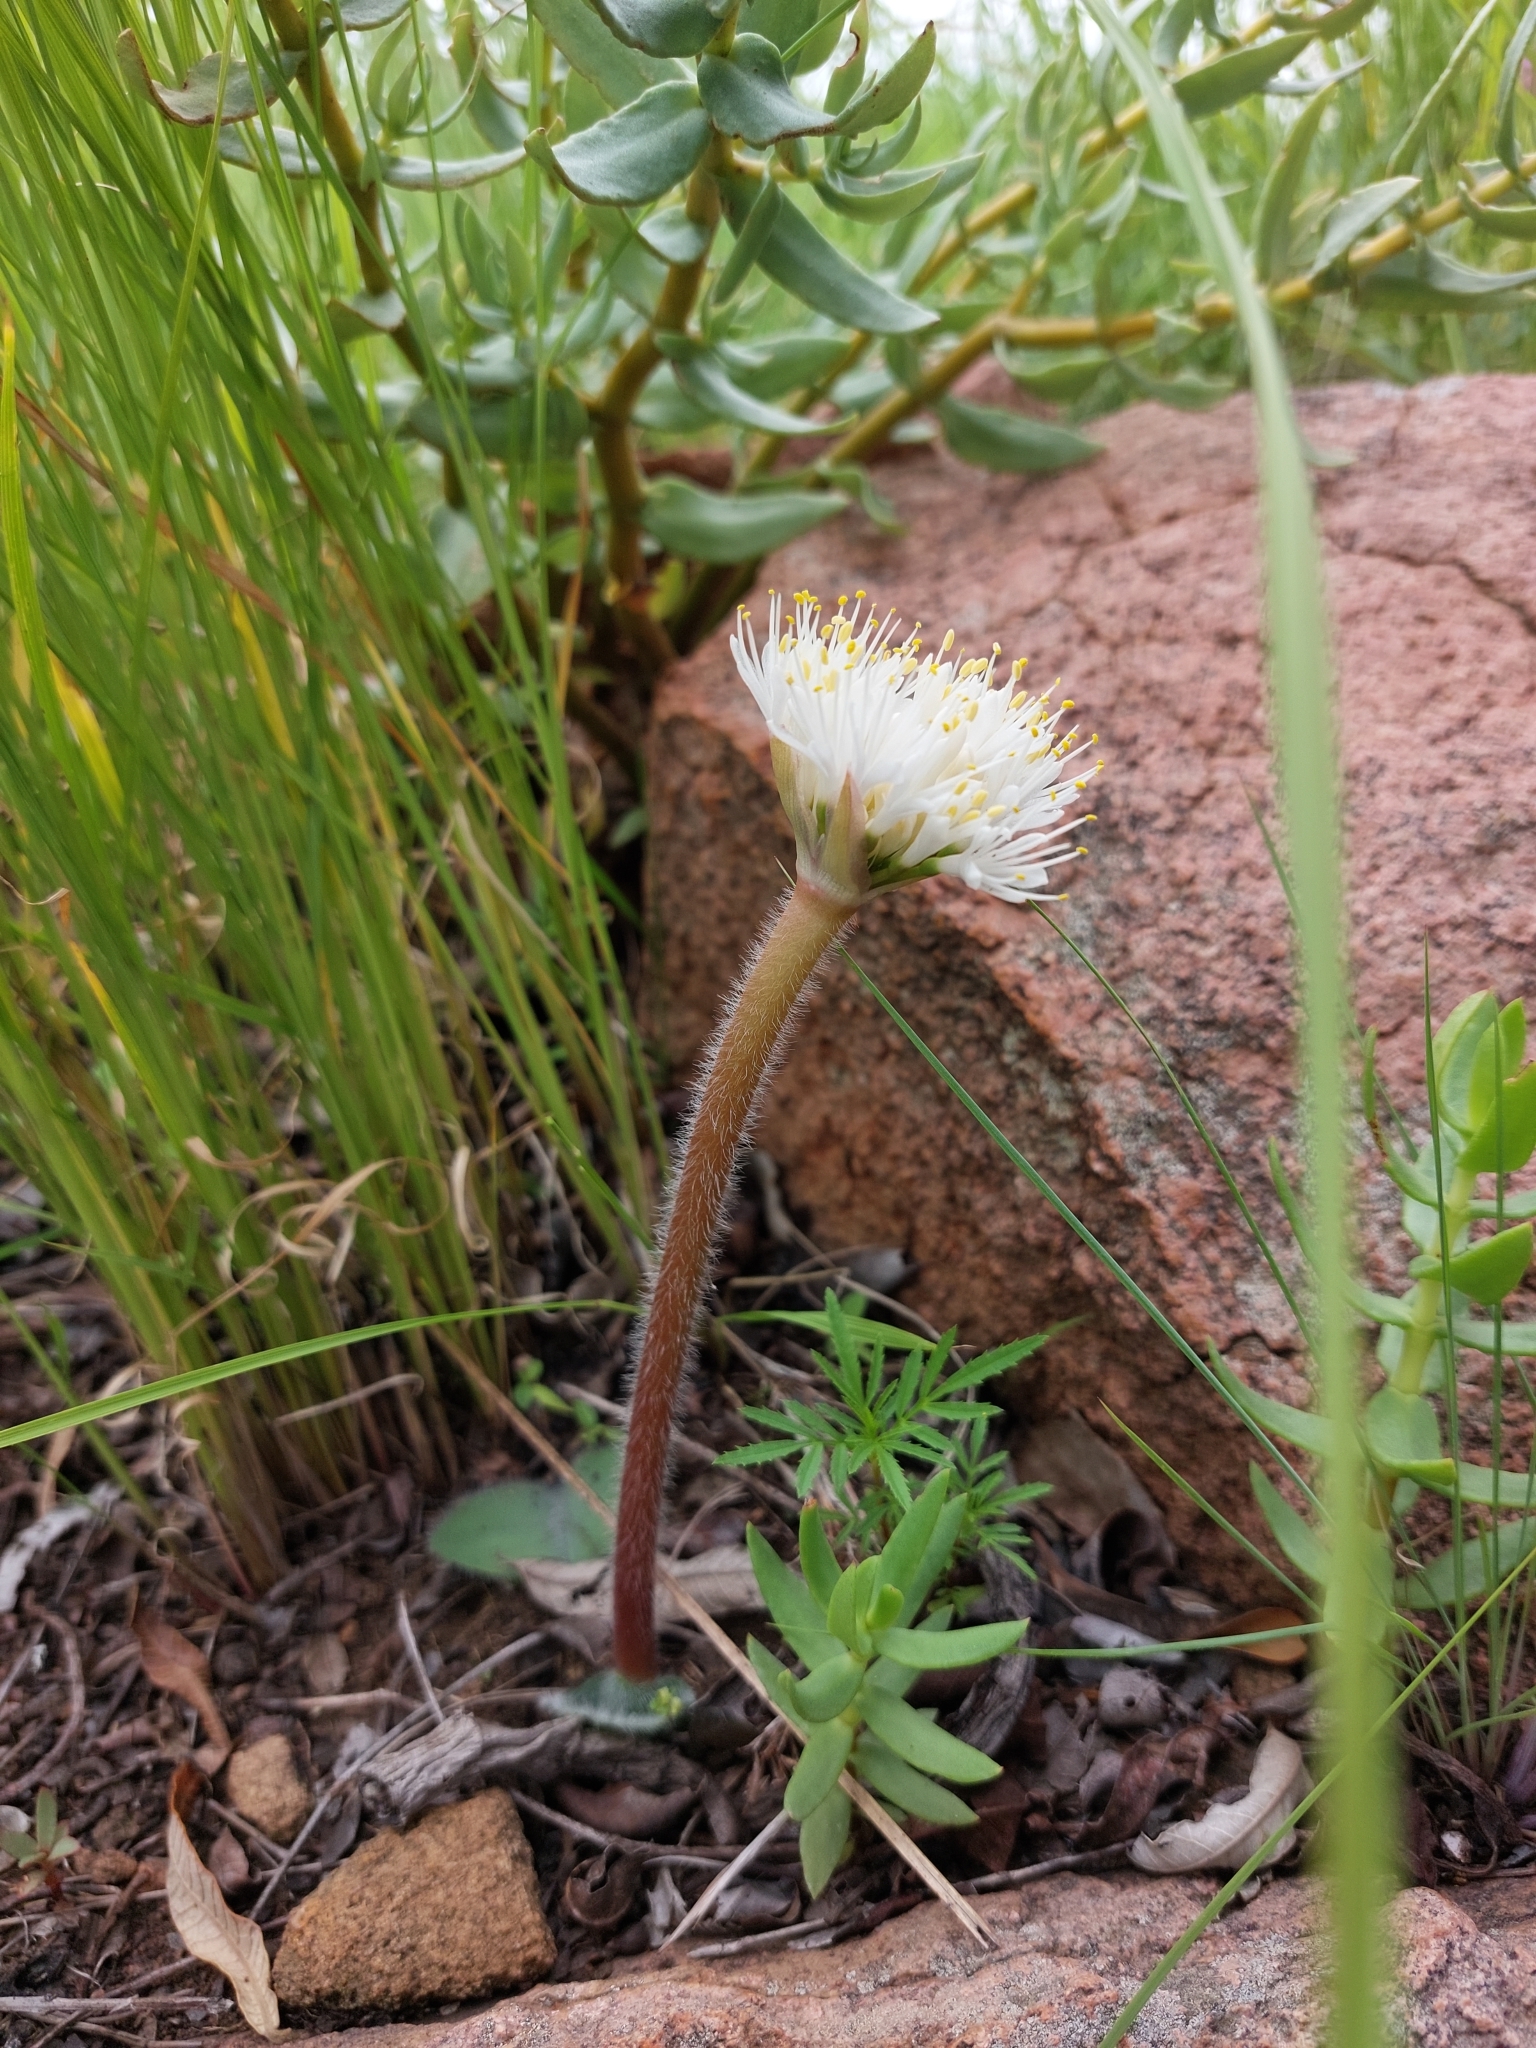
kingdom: Plantae
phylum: Tracheophyta
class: Liliopsida
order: Asparagales
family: Amaryllidaceae
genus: Haemanthus
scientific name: Haemanthus humilis
